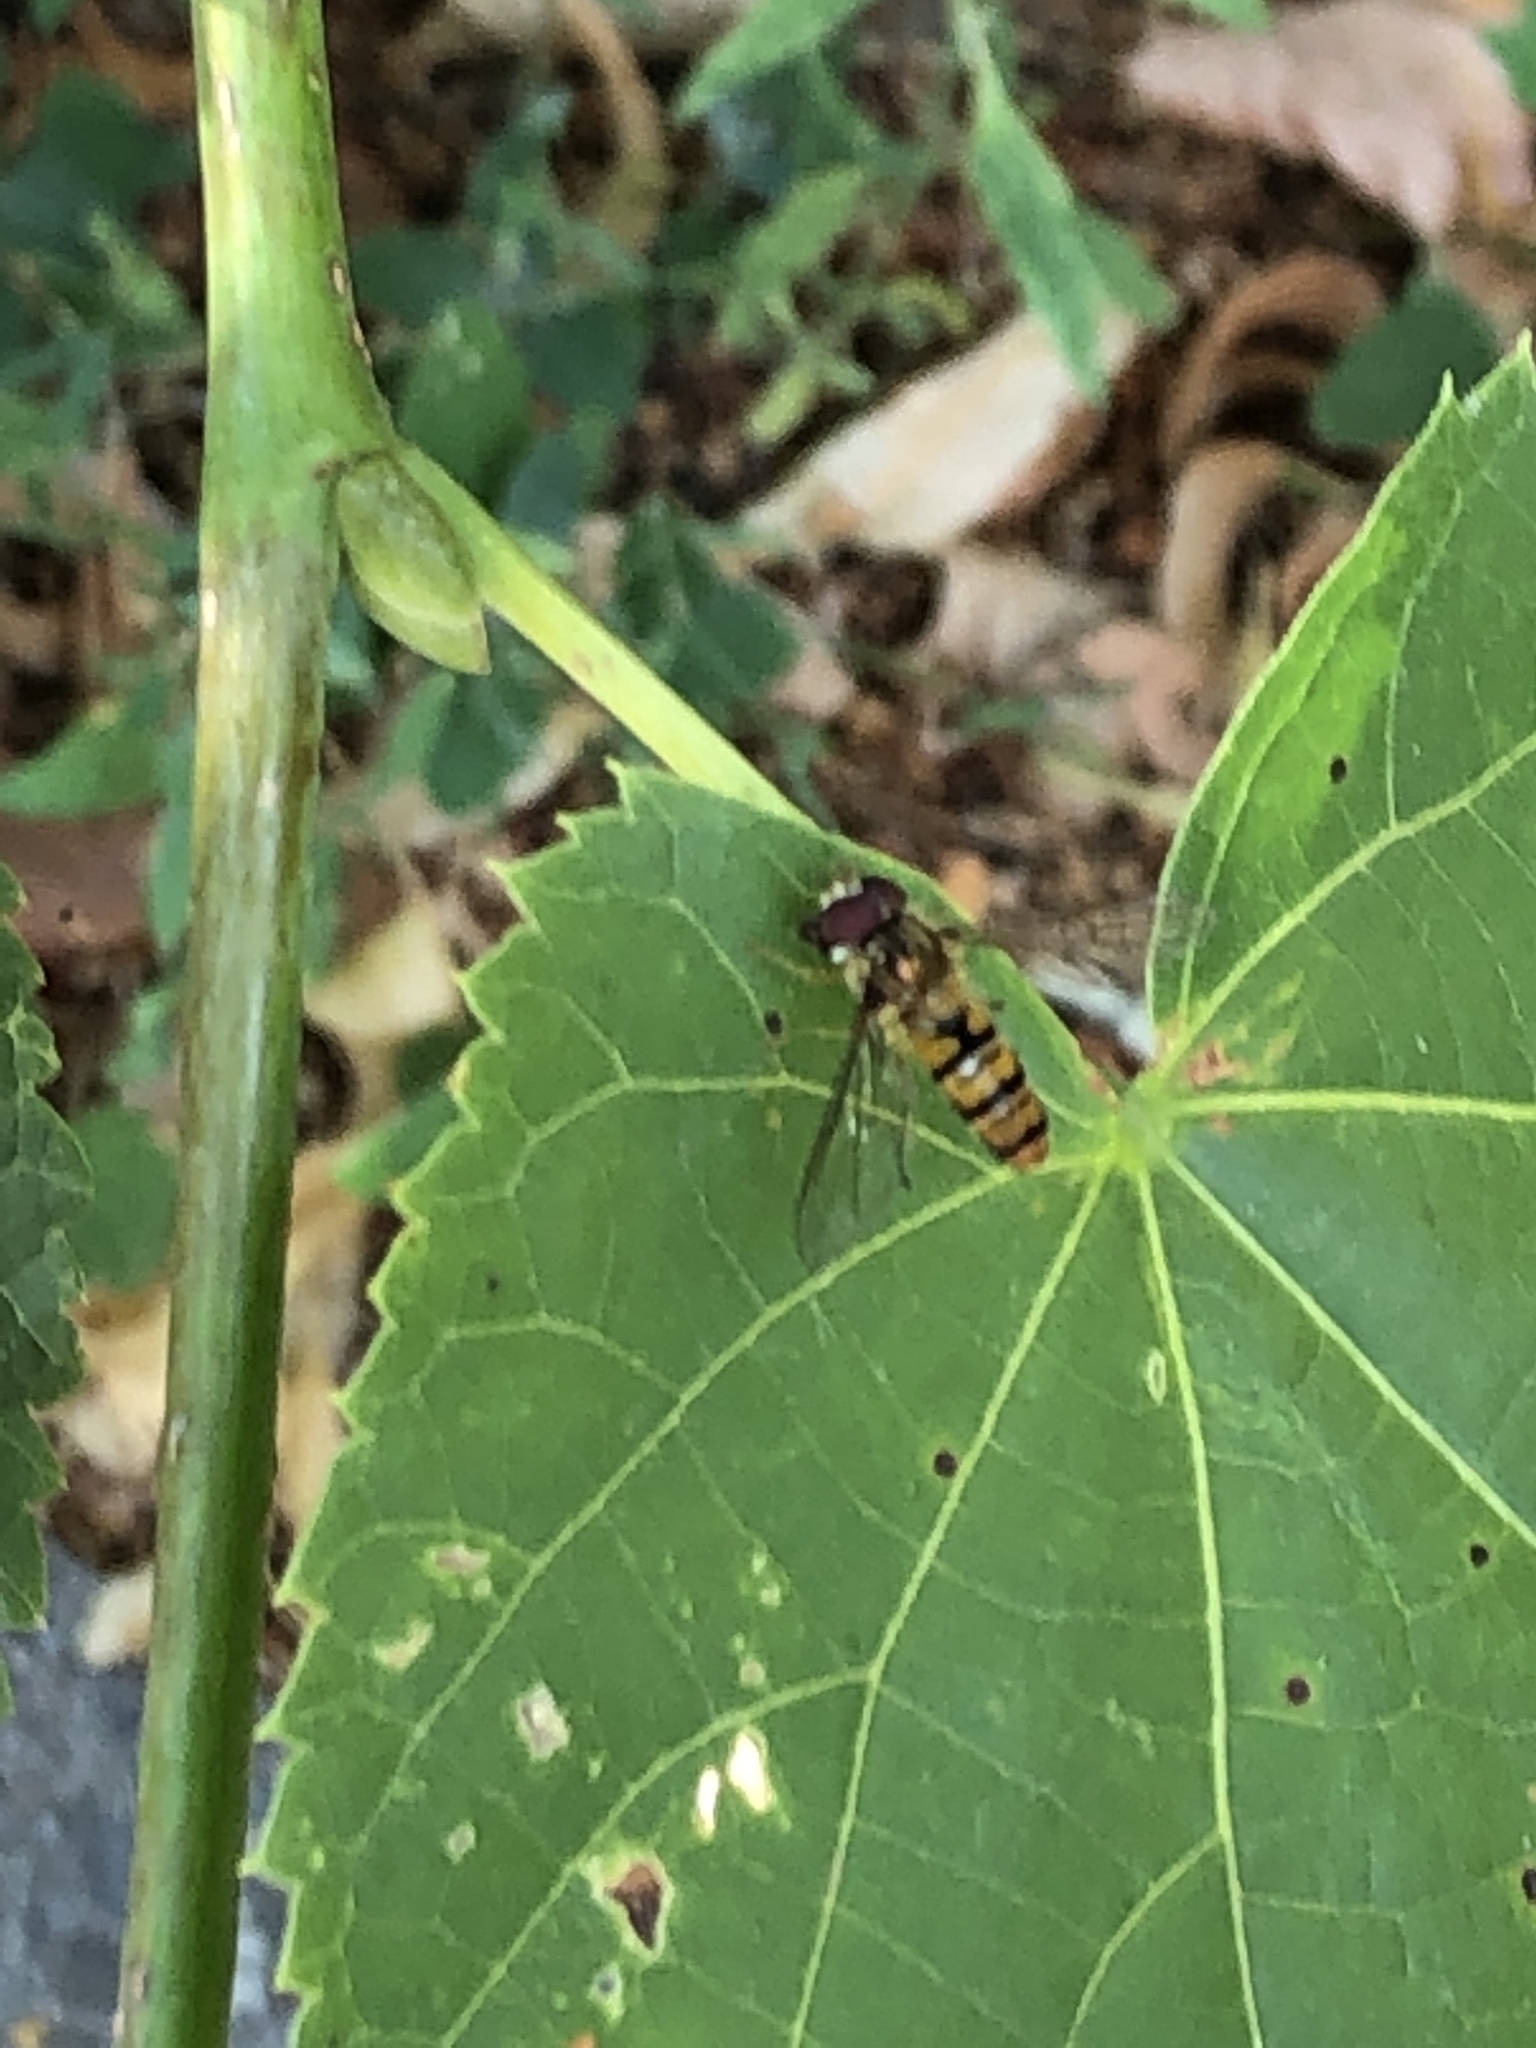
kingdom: Animalia
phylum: Arthropoda
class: Insecta
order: Diptera
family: Syrphidae
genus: Episyrphus
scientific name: Episyrphus balteatus
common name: Marmalade hoverfly
